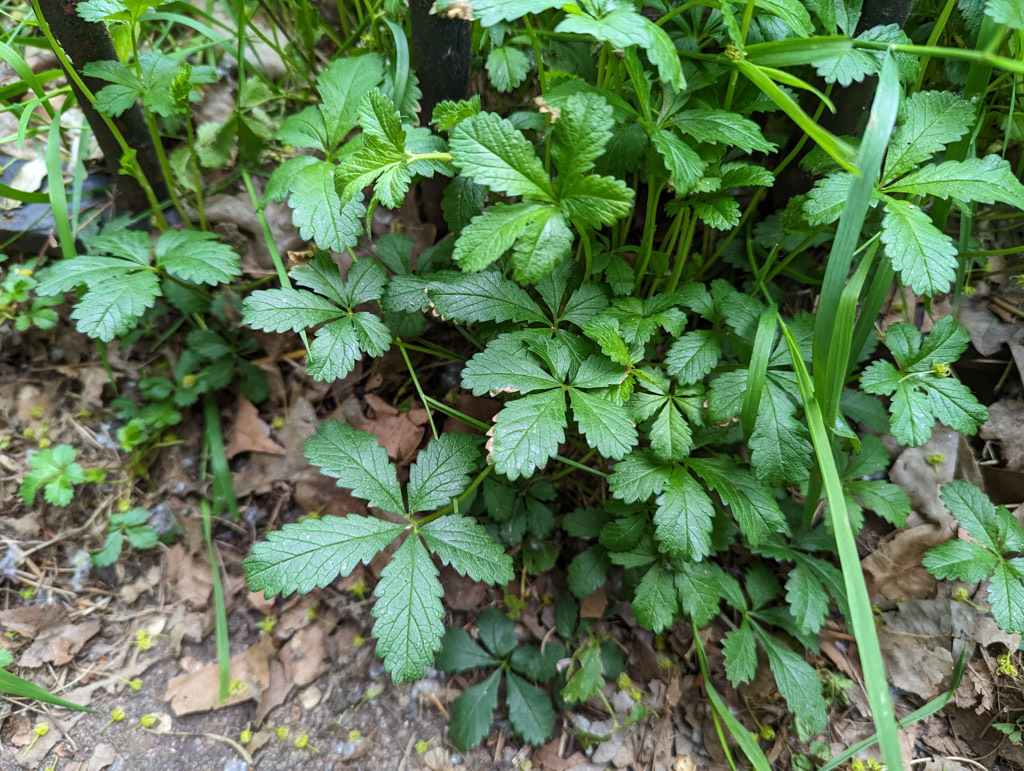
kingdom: Plantae
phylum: Tracheophyta
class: Magnoliopsida
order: Rosales
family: Rosaceae
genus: Potentilla
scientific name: Potentilla reptans
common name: Creeping cinquefoil
